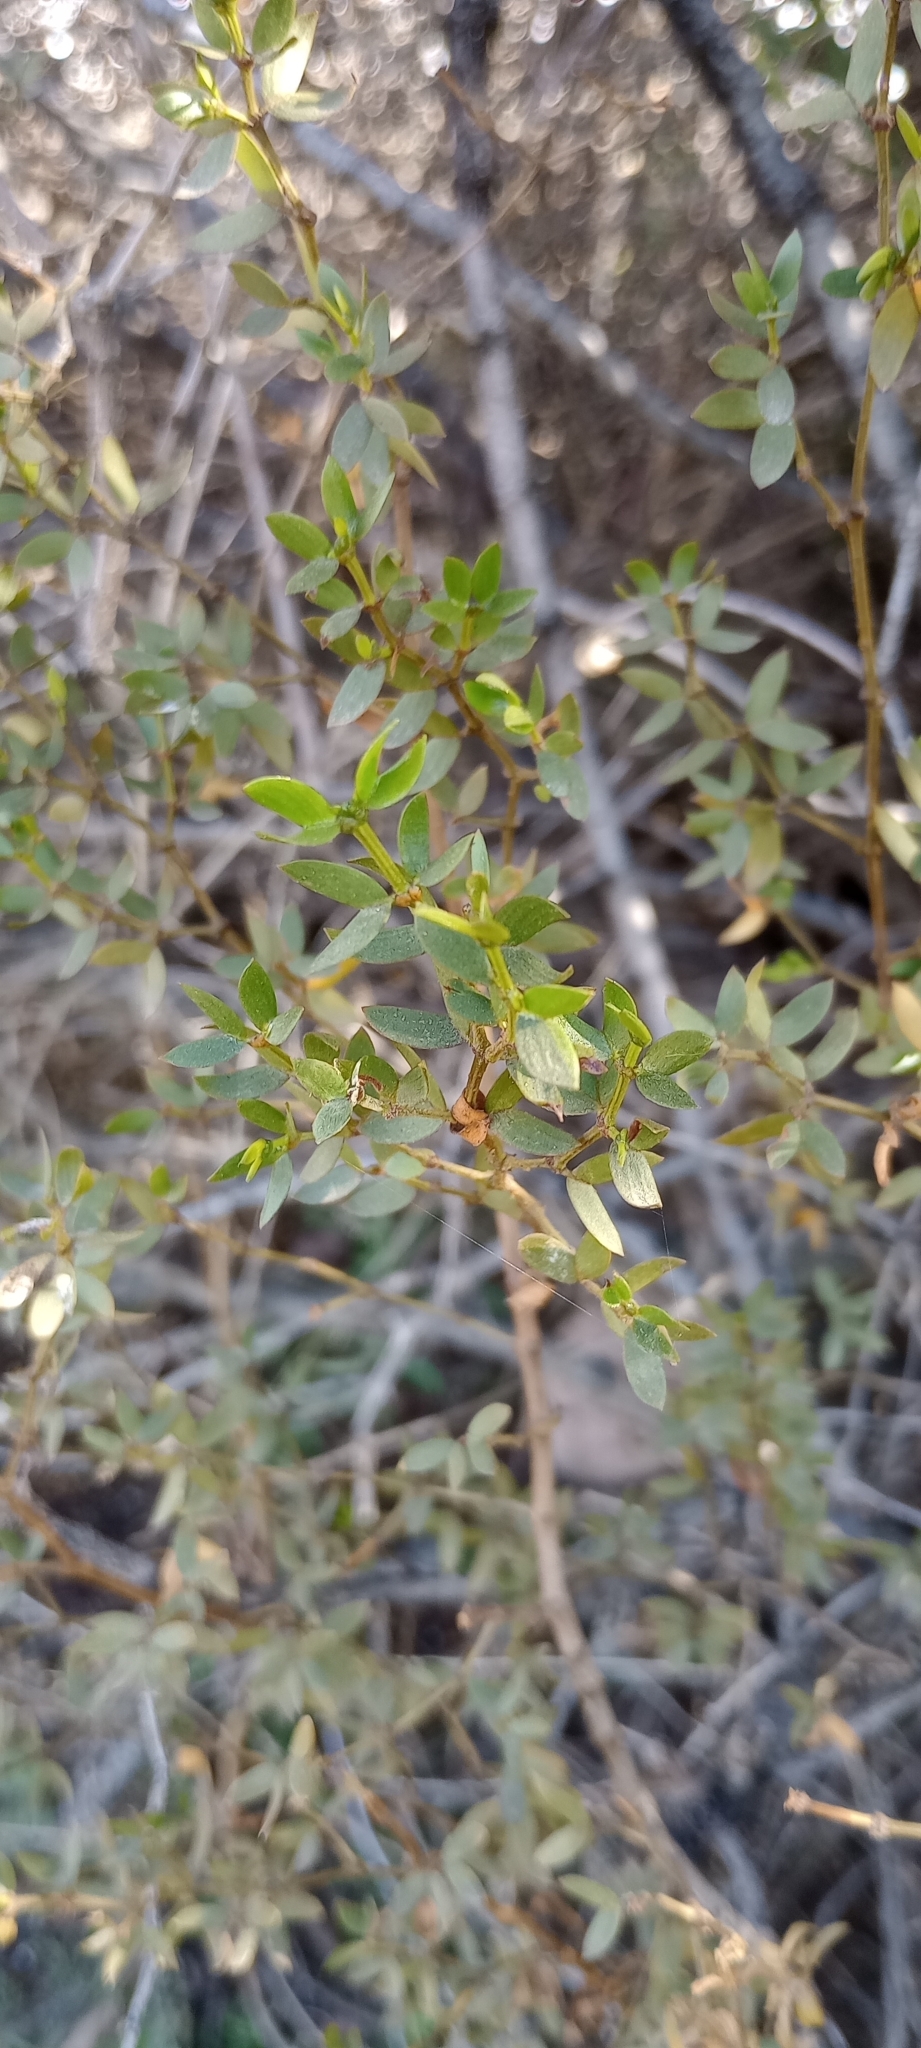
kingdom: Plantae
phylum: Tracheophyta
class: Magnoliopsida
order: Zygophyllales
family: Zygophyllaceae
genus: Larrea
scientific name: Larrea divaricata
